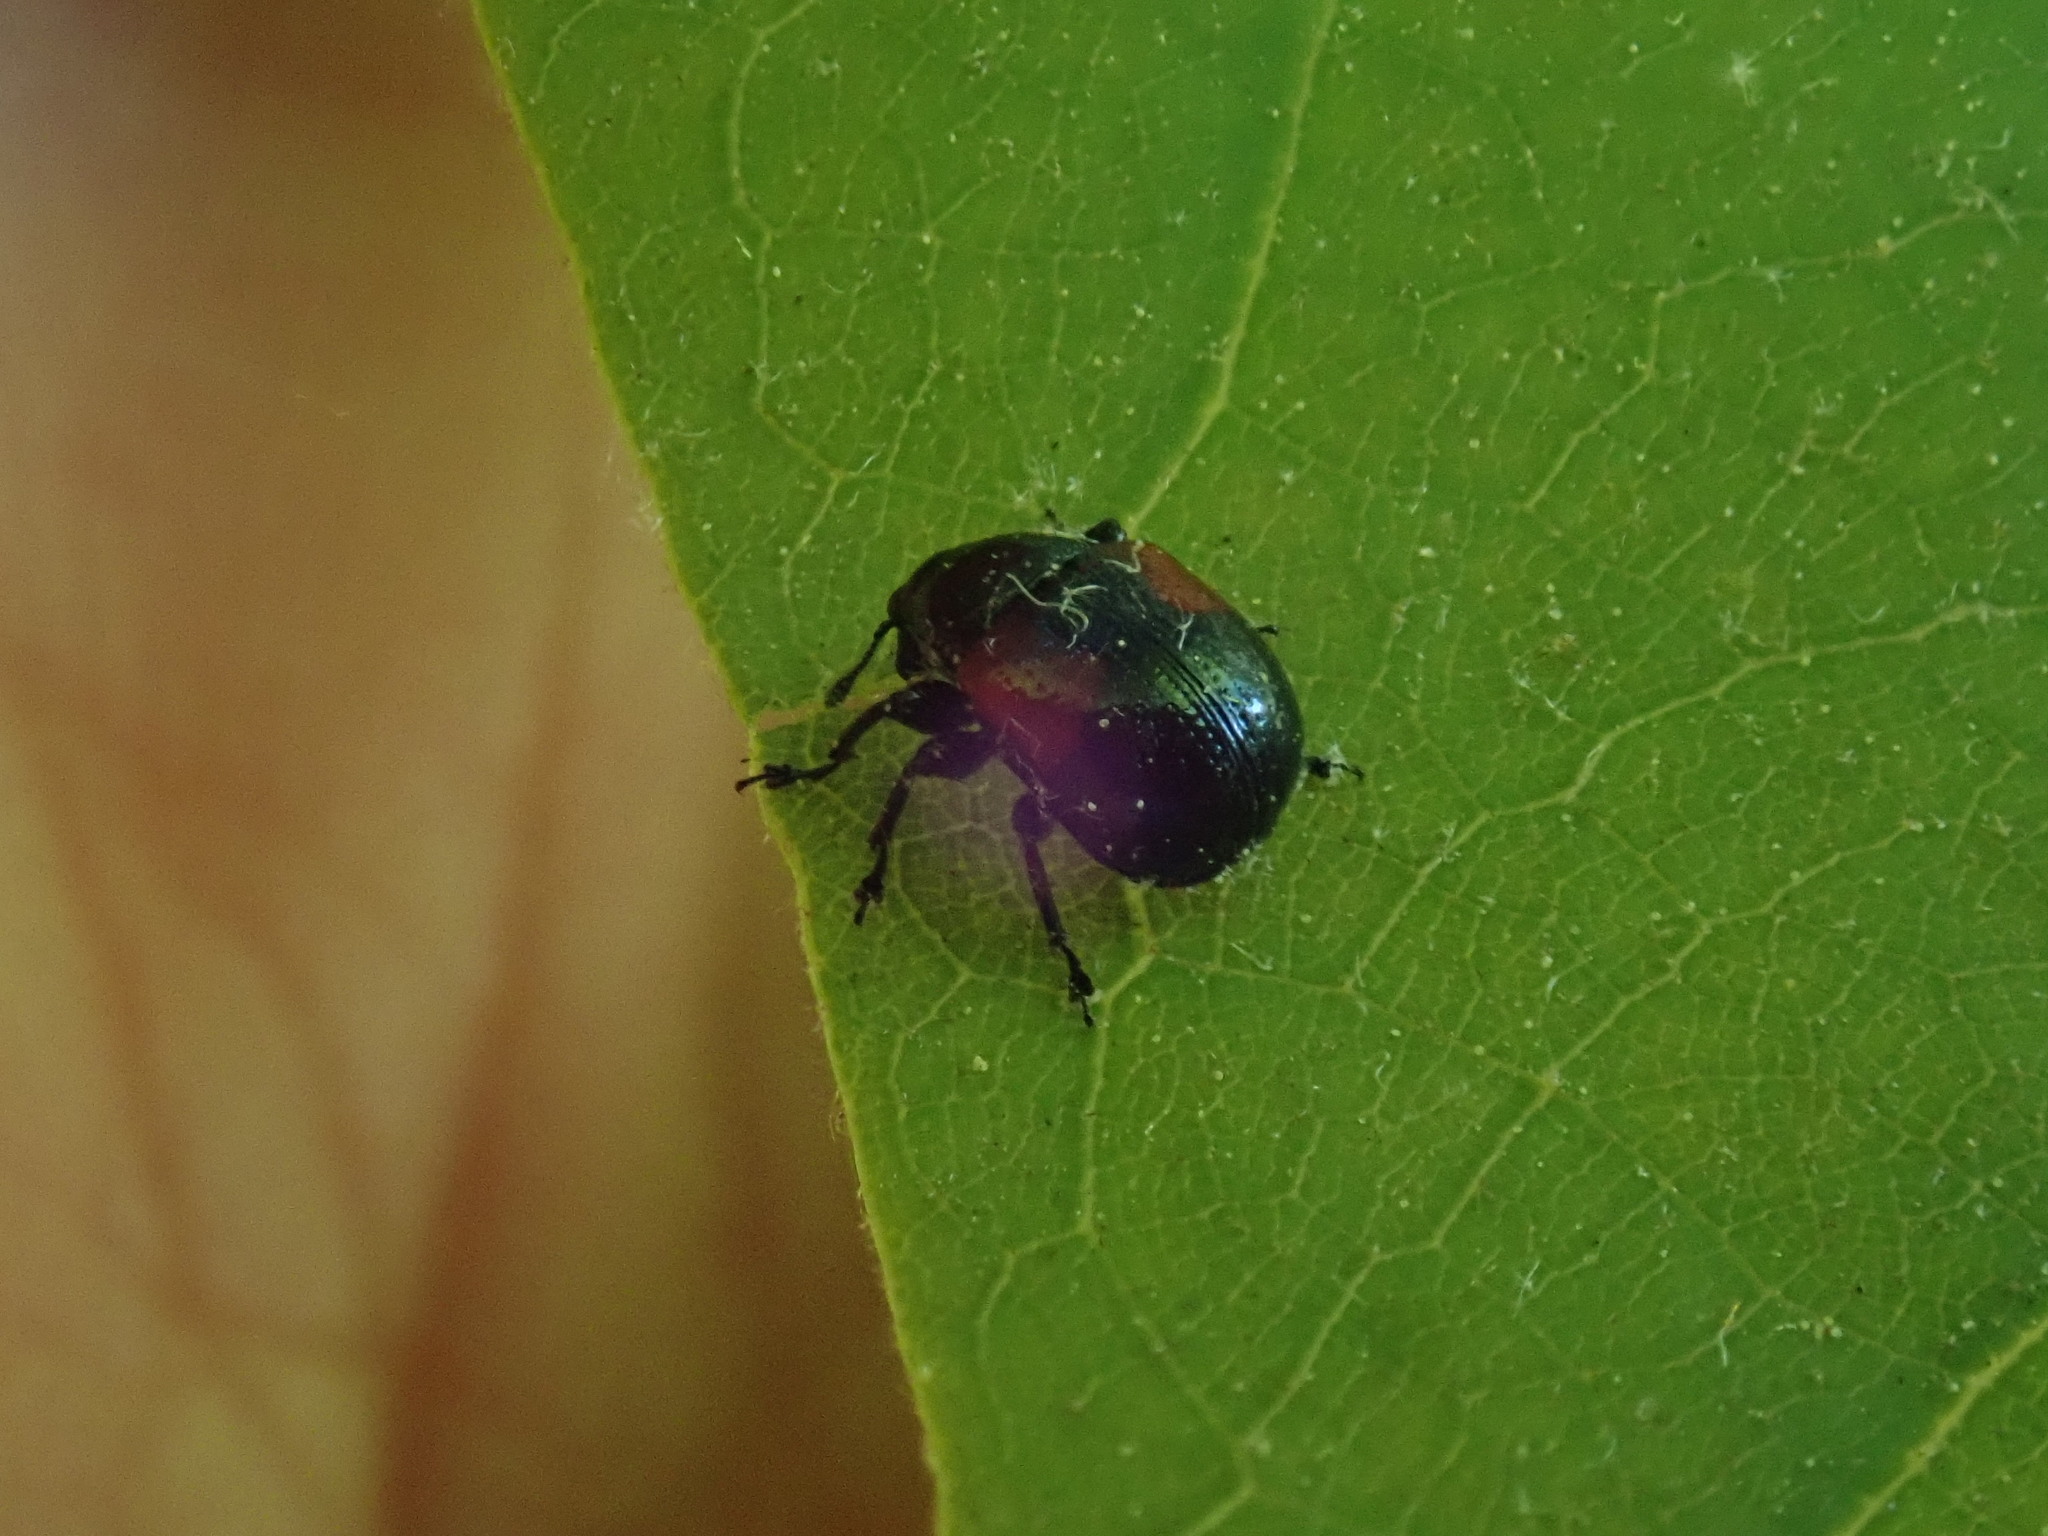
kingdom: Animalia
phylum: Arthropoda
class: Insecta
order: Coleoptera
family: Attelabidae
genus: Attelabus
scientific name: Attelabus bipustulatus
